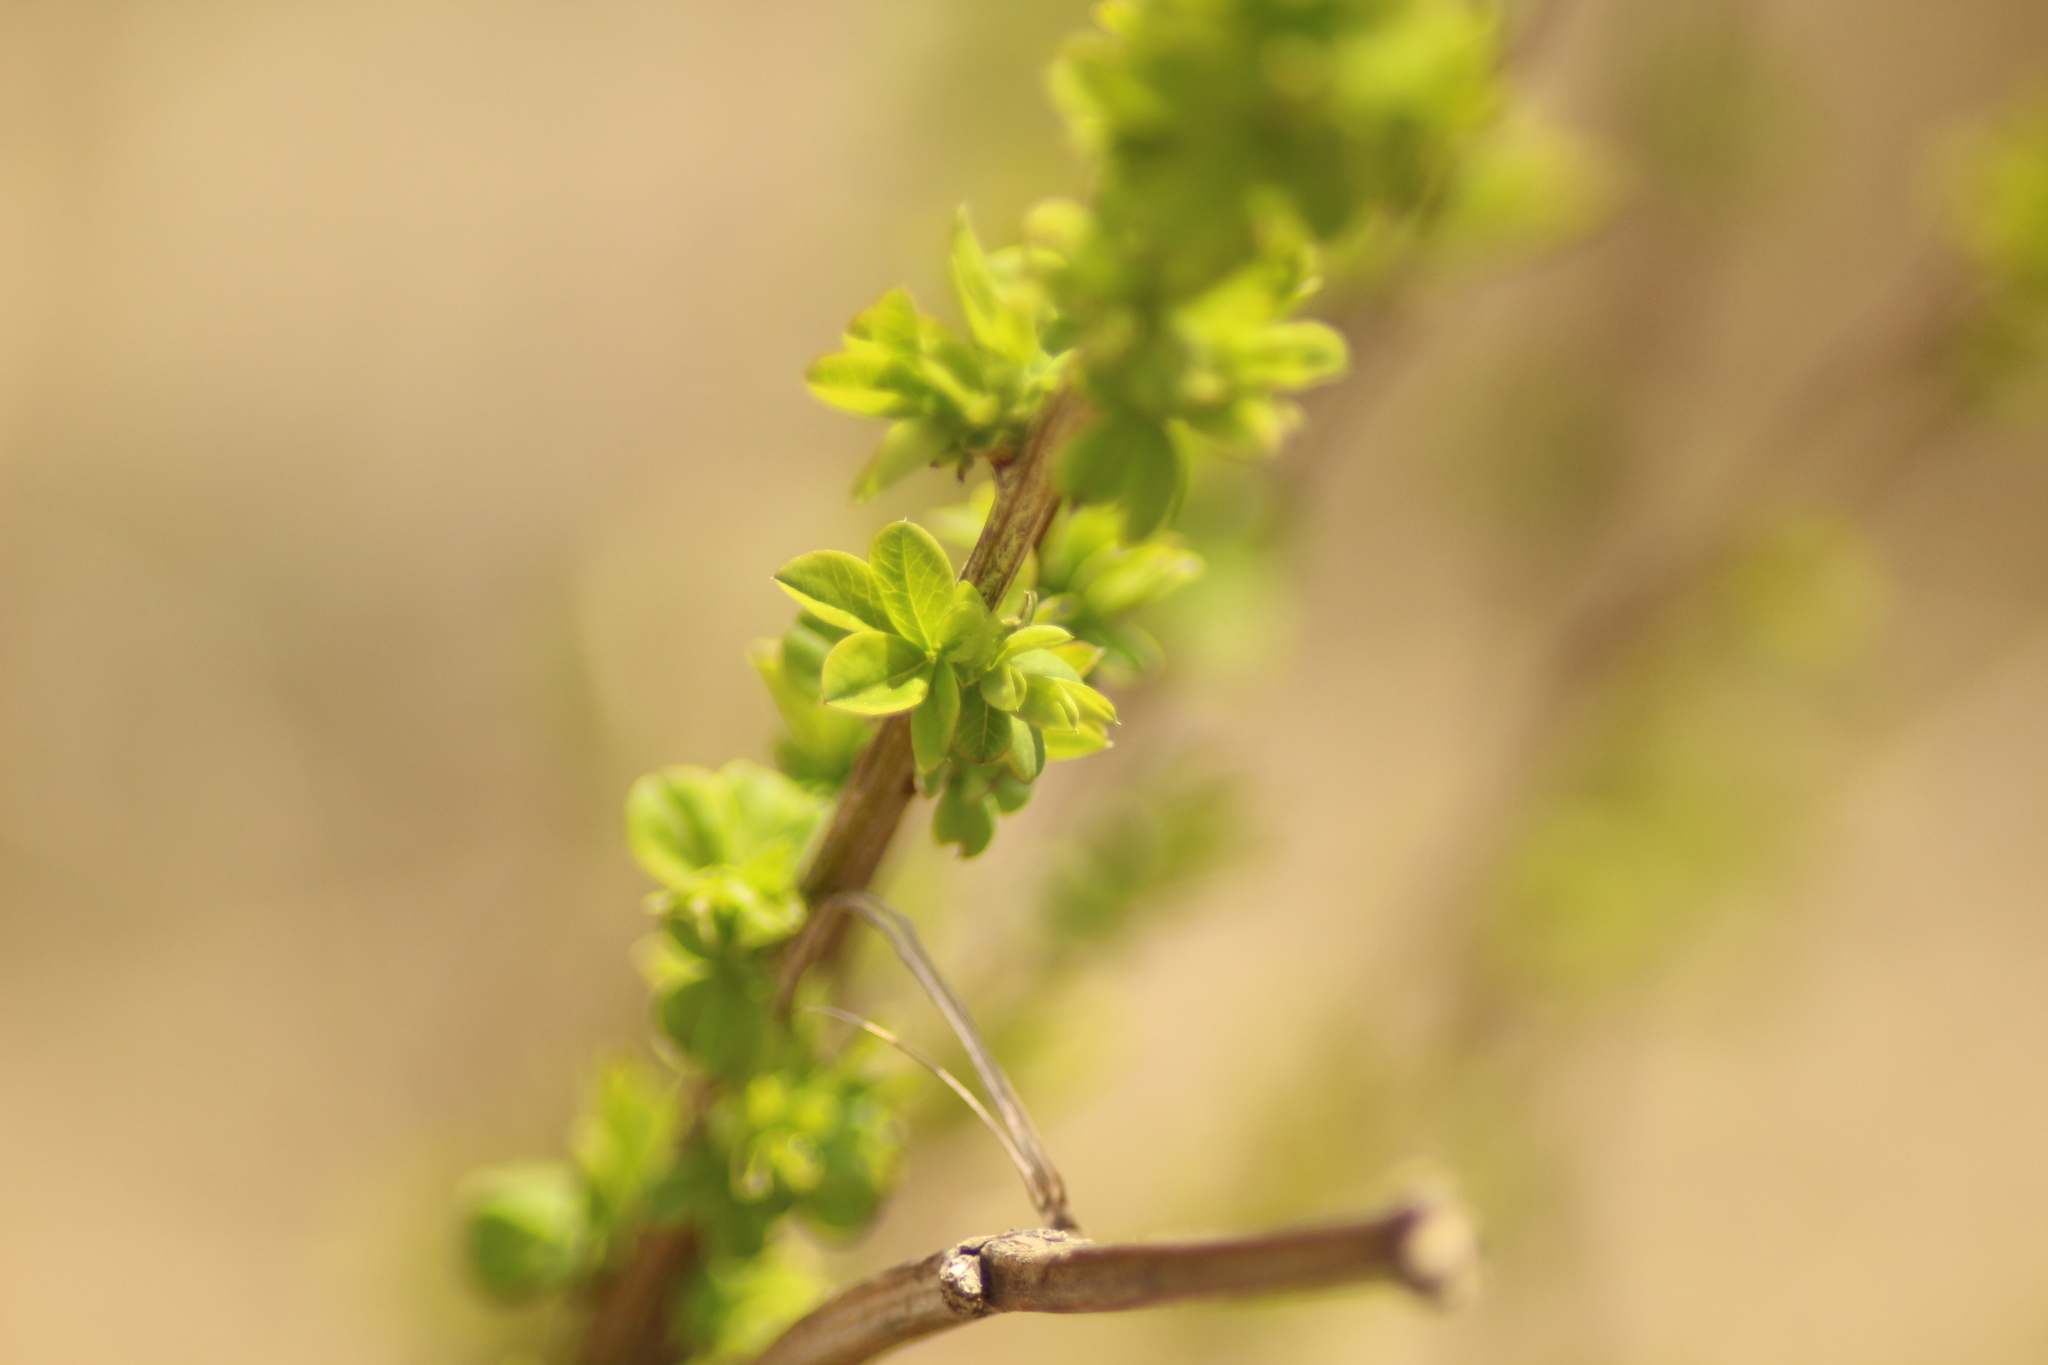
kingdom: Plantae
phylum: Tracheophyta
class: Magnoliopsida
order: Fabales
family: Fabaceae
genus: Caragana
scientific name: Caragana frutex
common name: Russian peashrub
